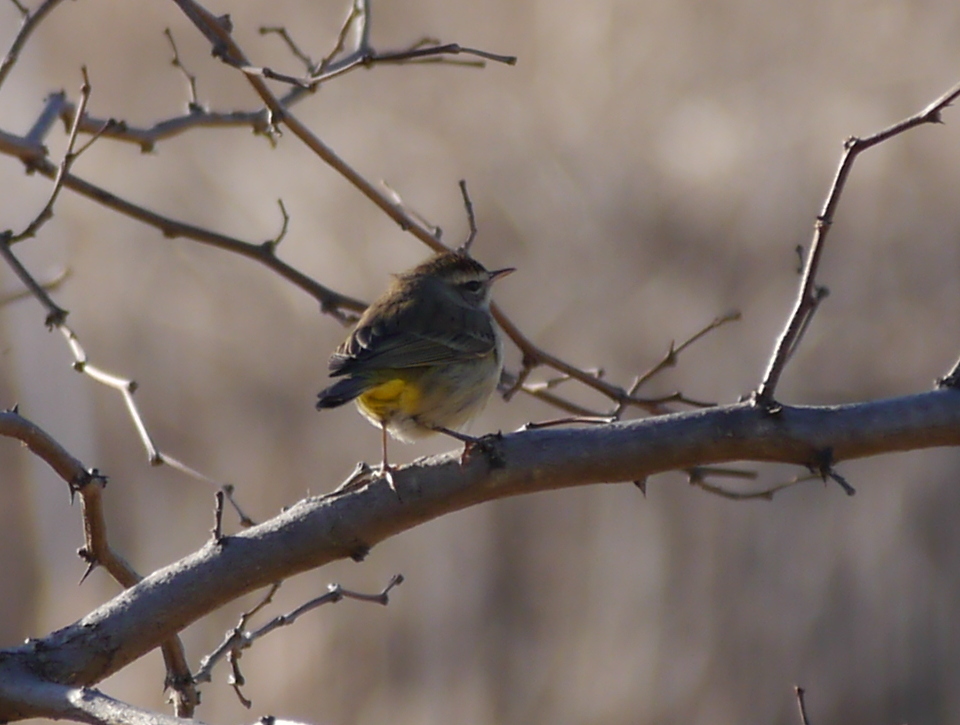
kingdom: Animalia
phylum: Chordata
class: Aves
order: Passeriformes
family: Parulidae
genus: Setophaga
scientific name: Setophaga palmarum
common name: Palm warbler
